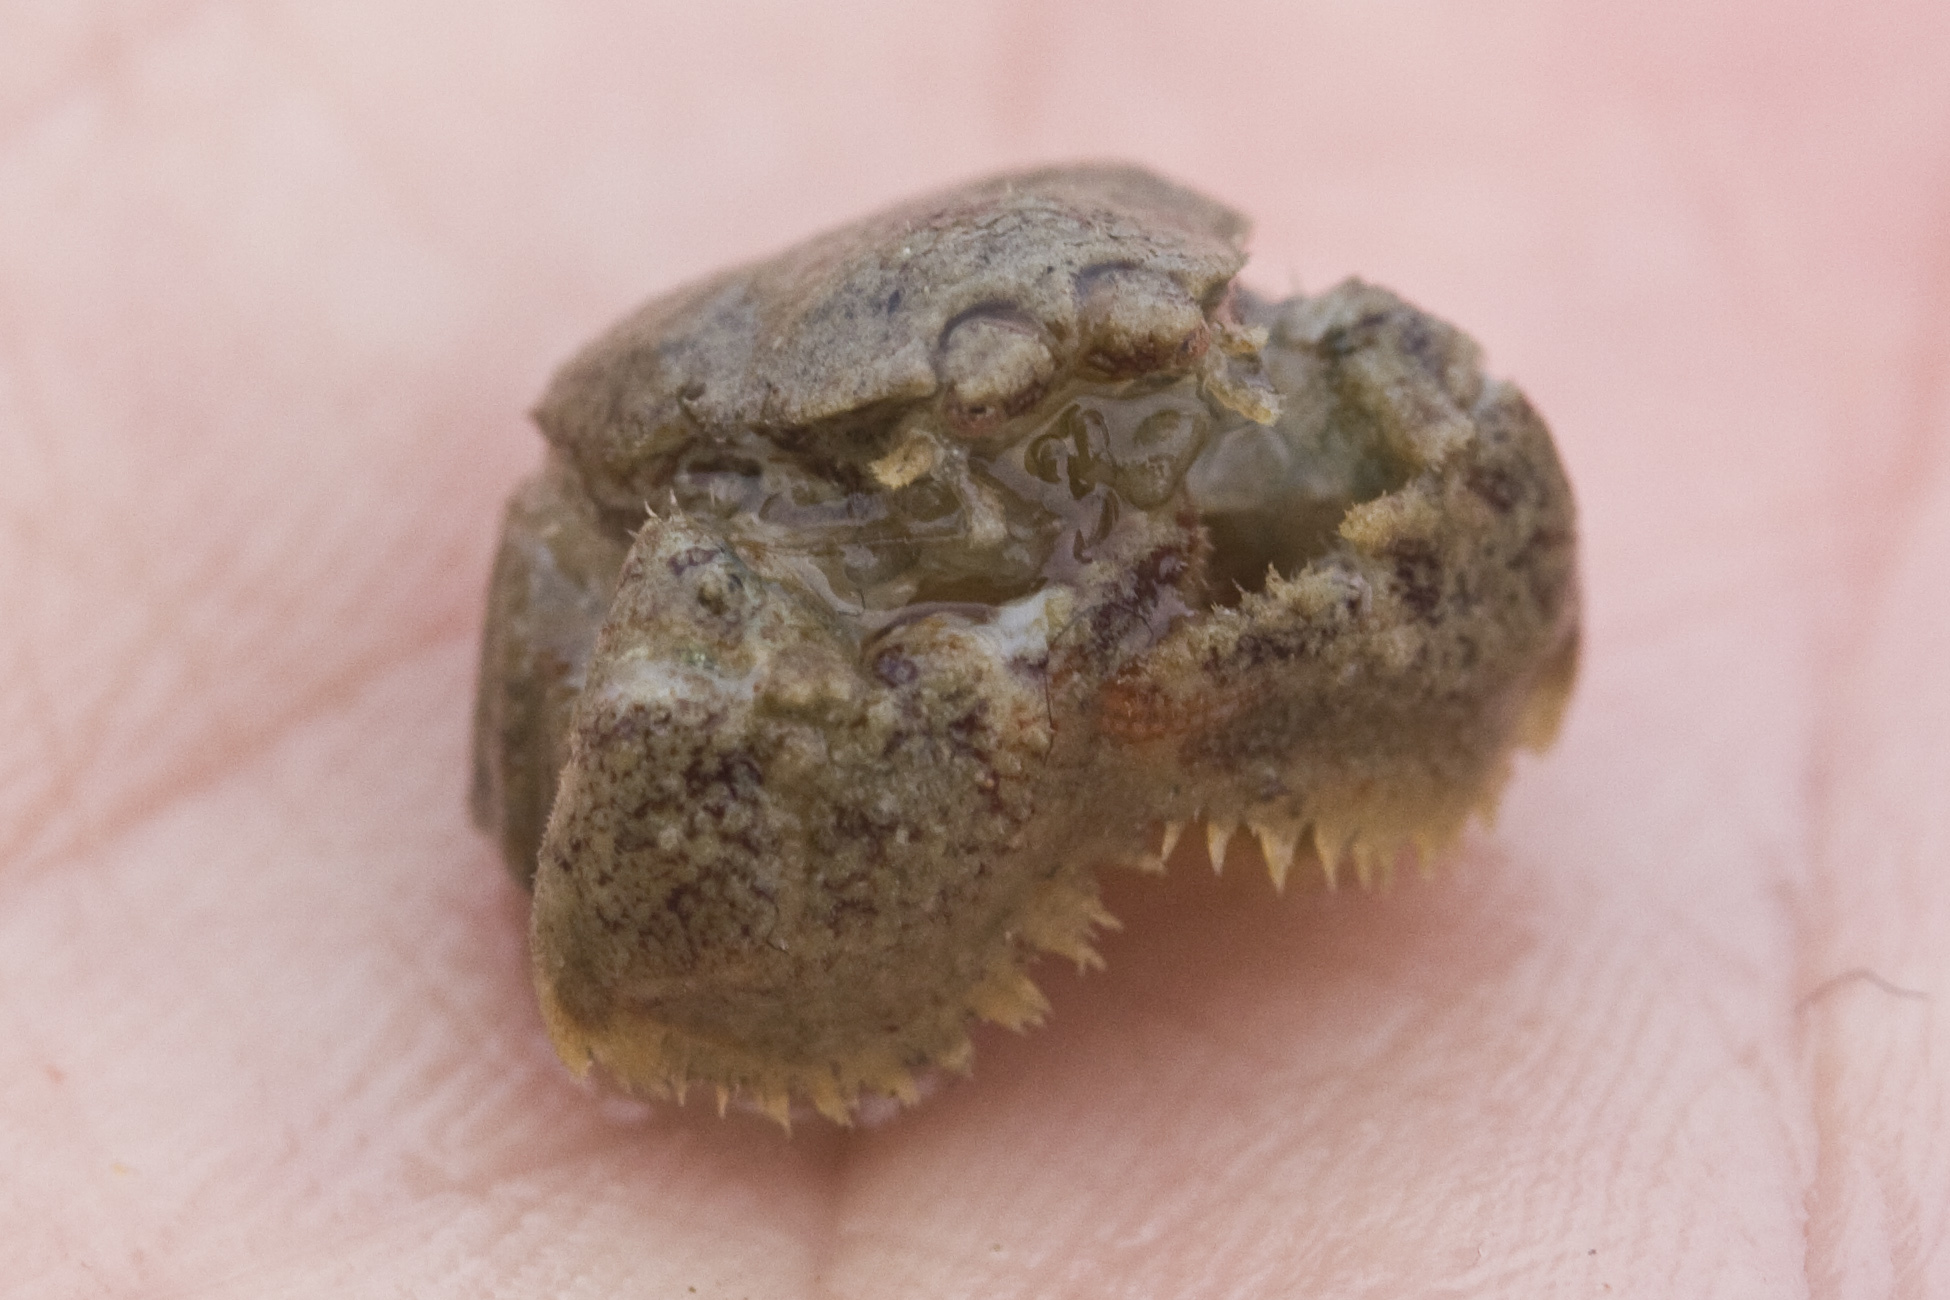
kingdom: Animalia
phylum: Arthropoda
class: Malacostraca
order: Decapoda
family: Hapalogastridae
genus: Hapalogaster
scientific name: Hapalogaster cavicauda
